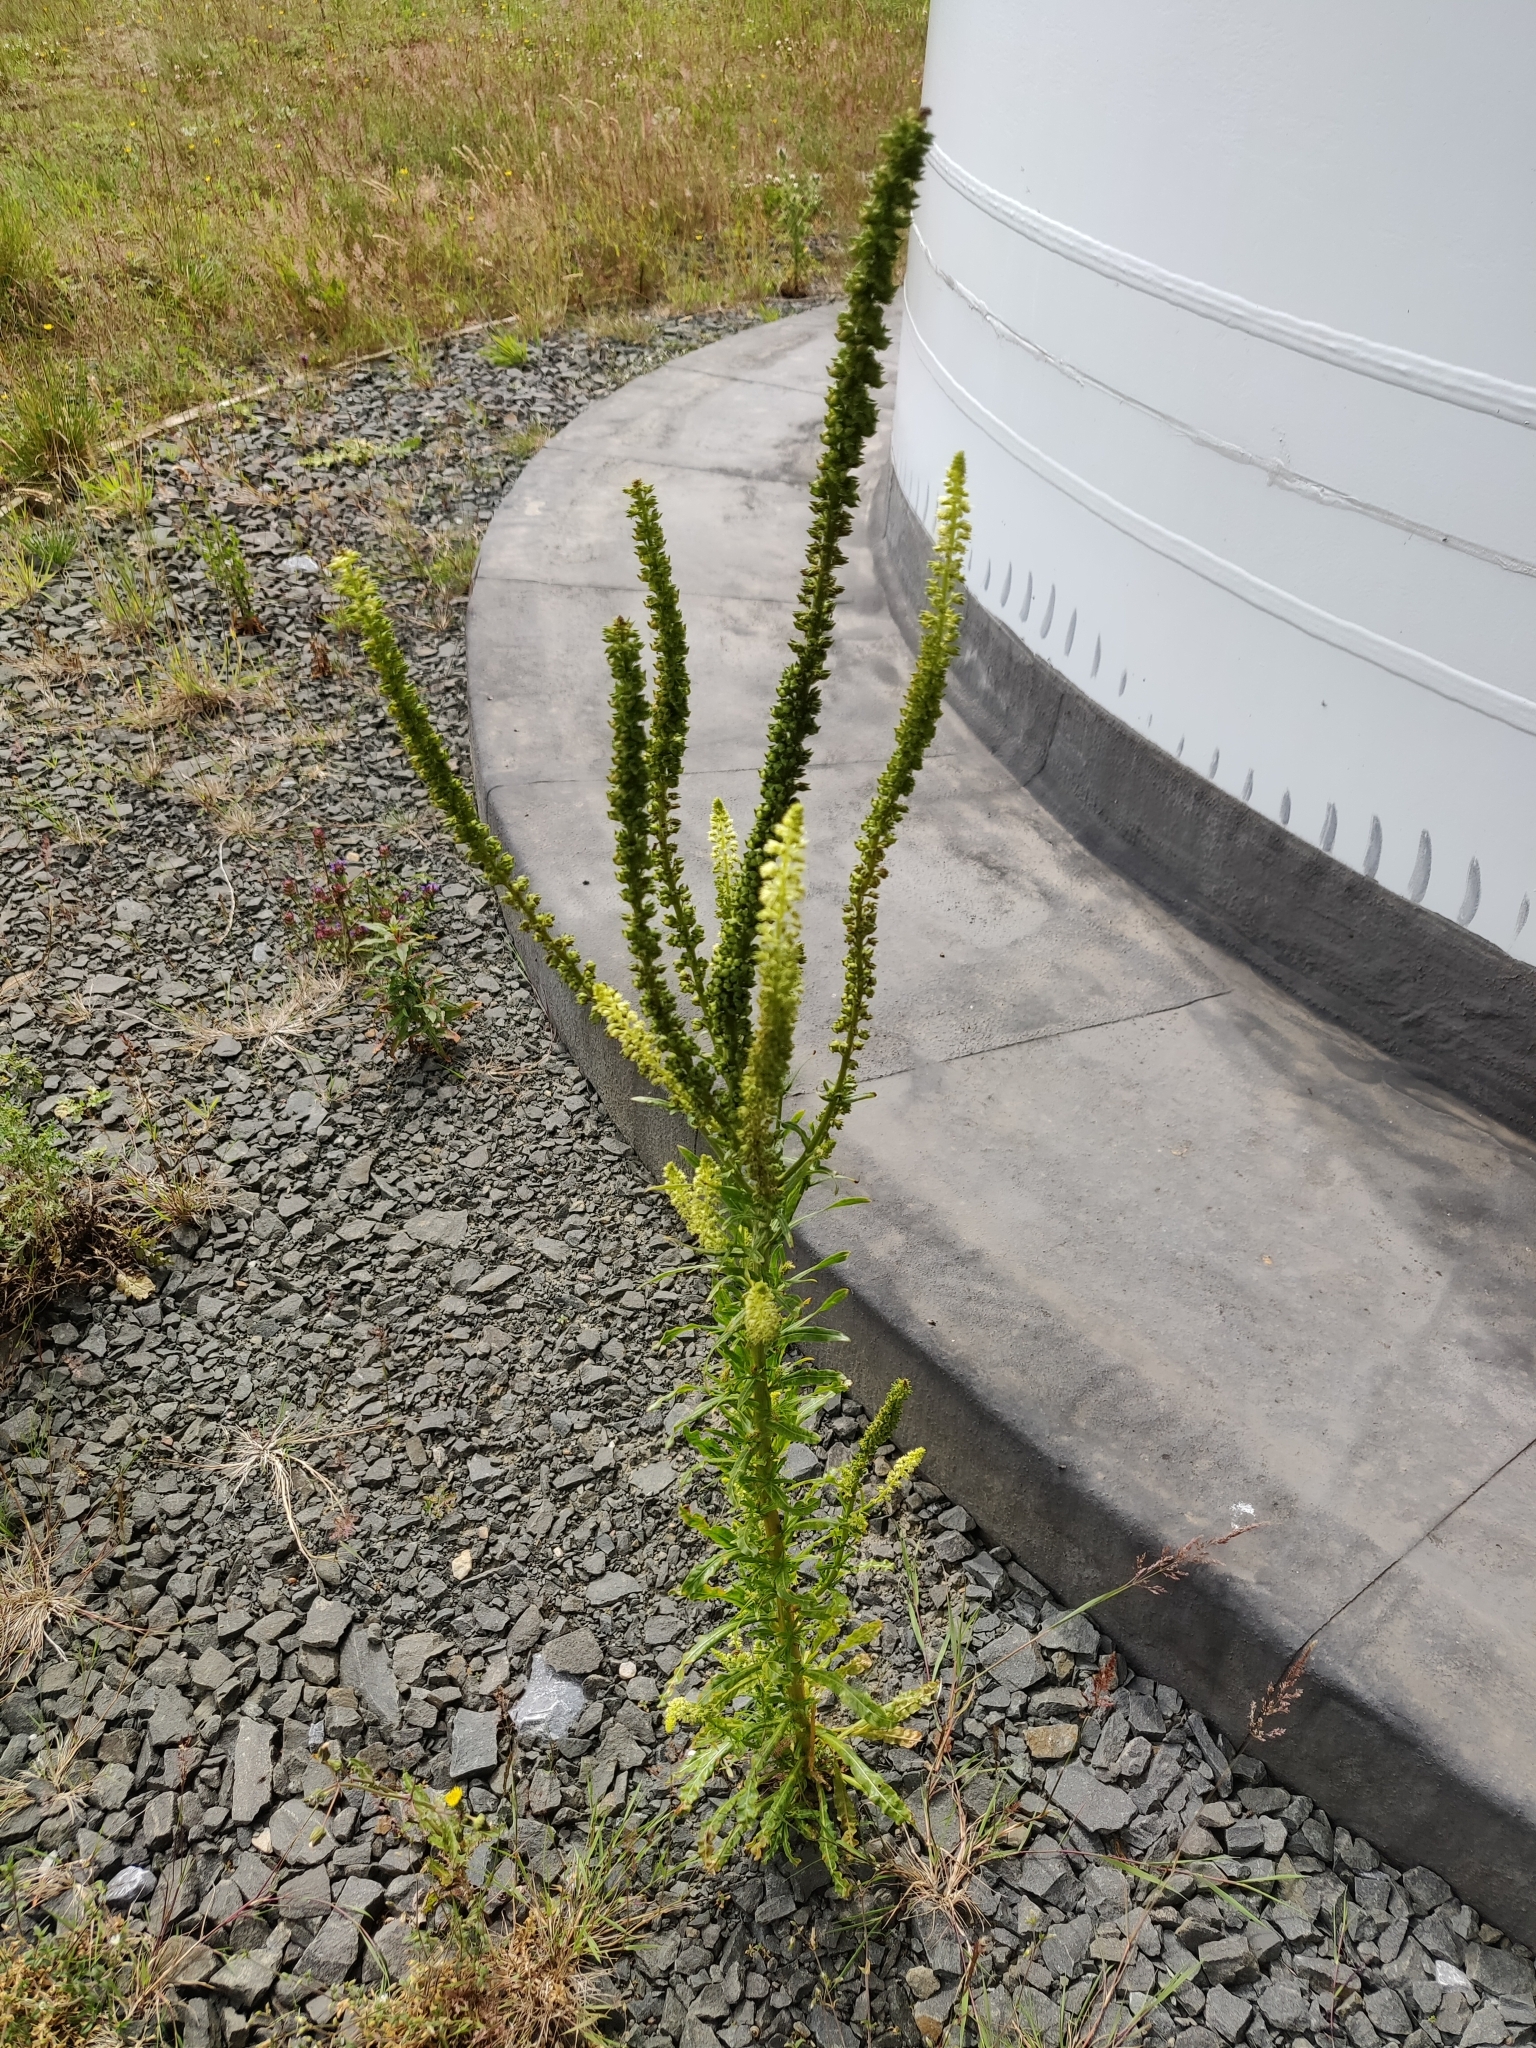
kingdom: Plantae
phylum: Tracheophyta
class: Magnoliopsida
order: Brassicales
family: Resedaceae
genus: Reseda
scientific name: Reseda luteola
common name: Weld
